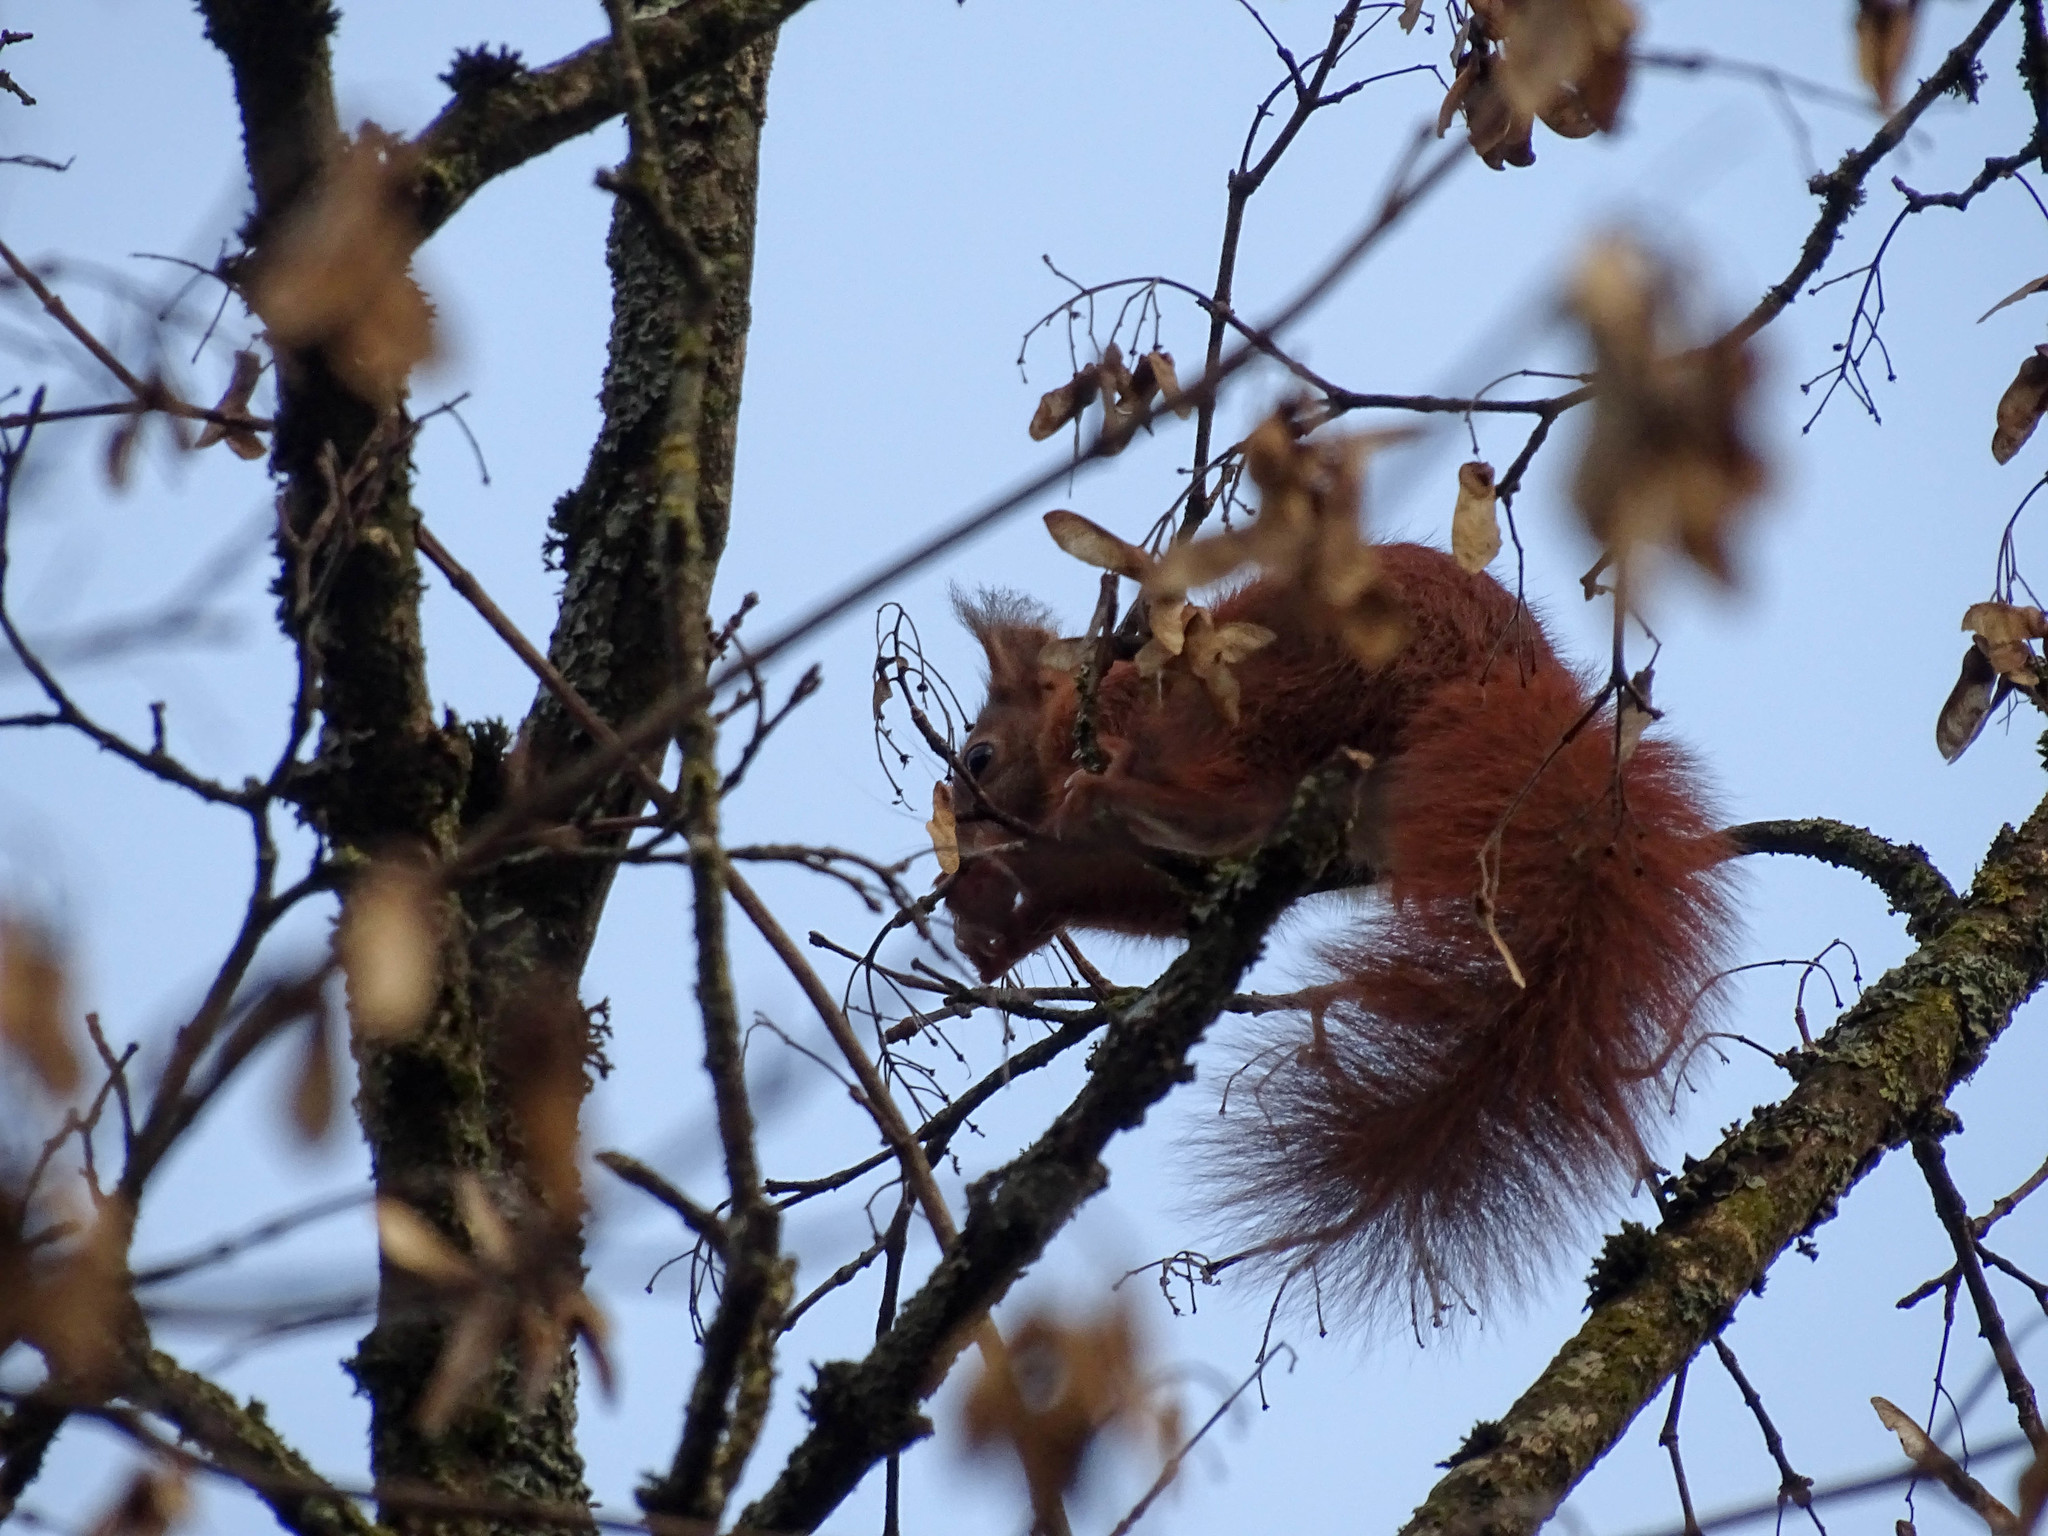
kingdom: Animalia
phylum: Chordata
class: Mammalia
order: Rodentia
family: Sciuridae
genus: Sciurus
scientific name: Sciurus vulgaris
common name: Eurasian red squirrel
